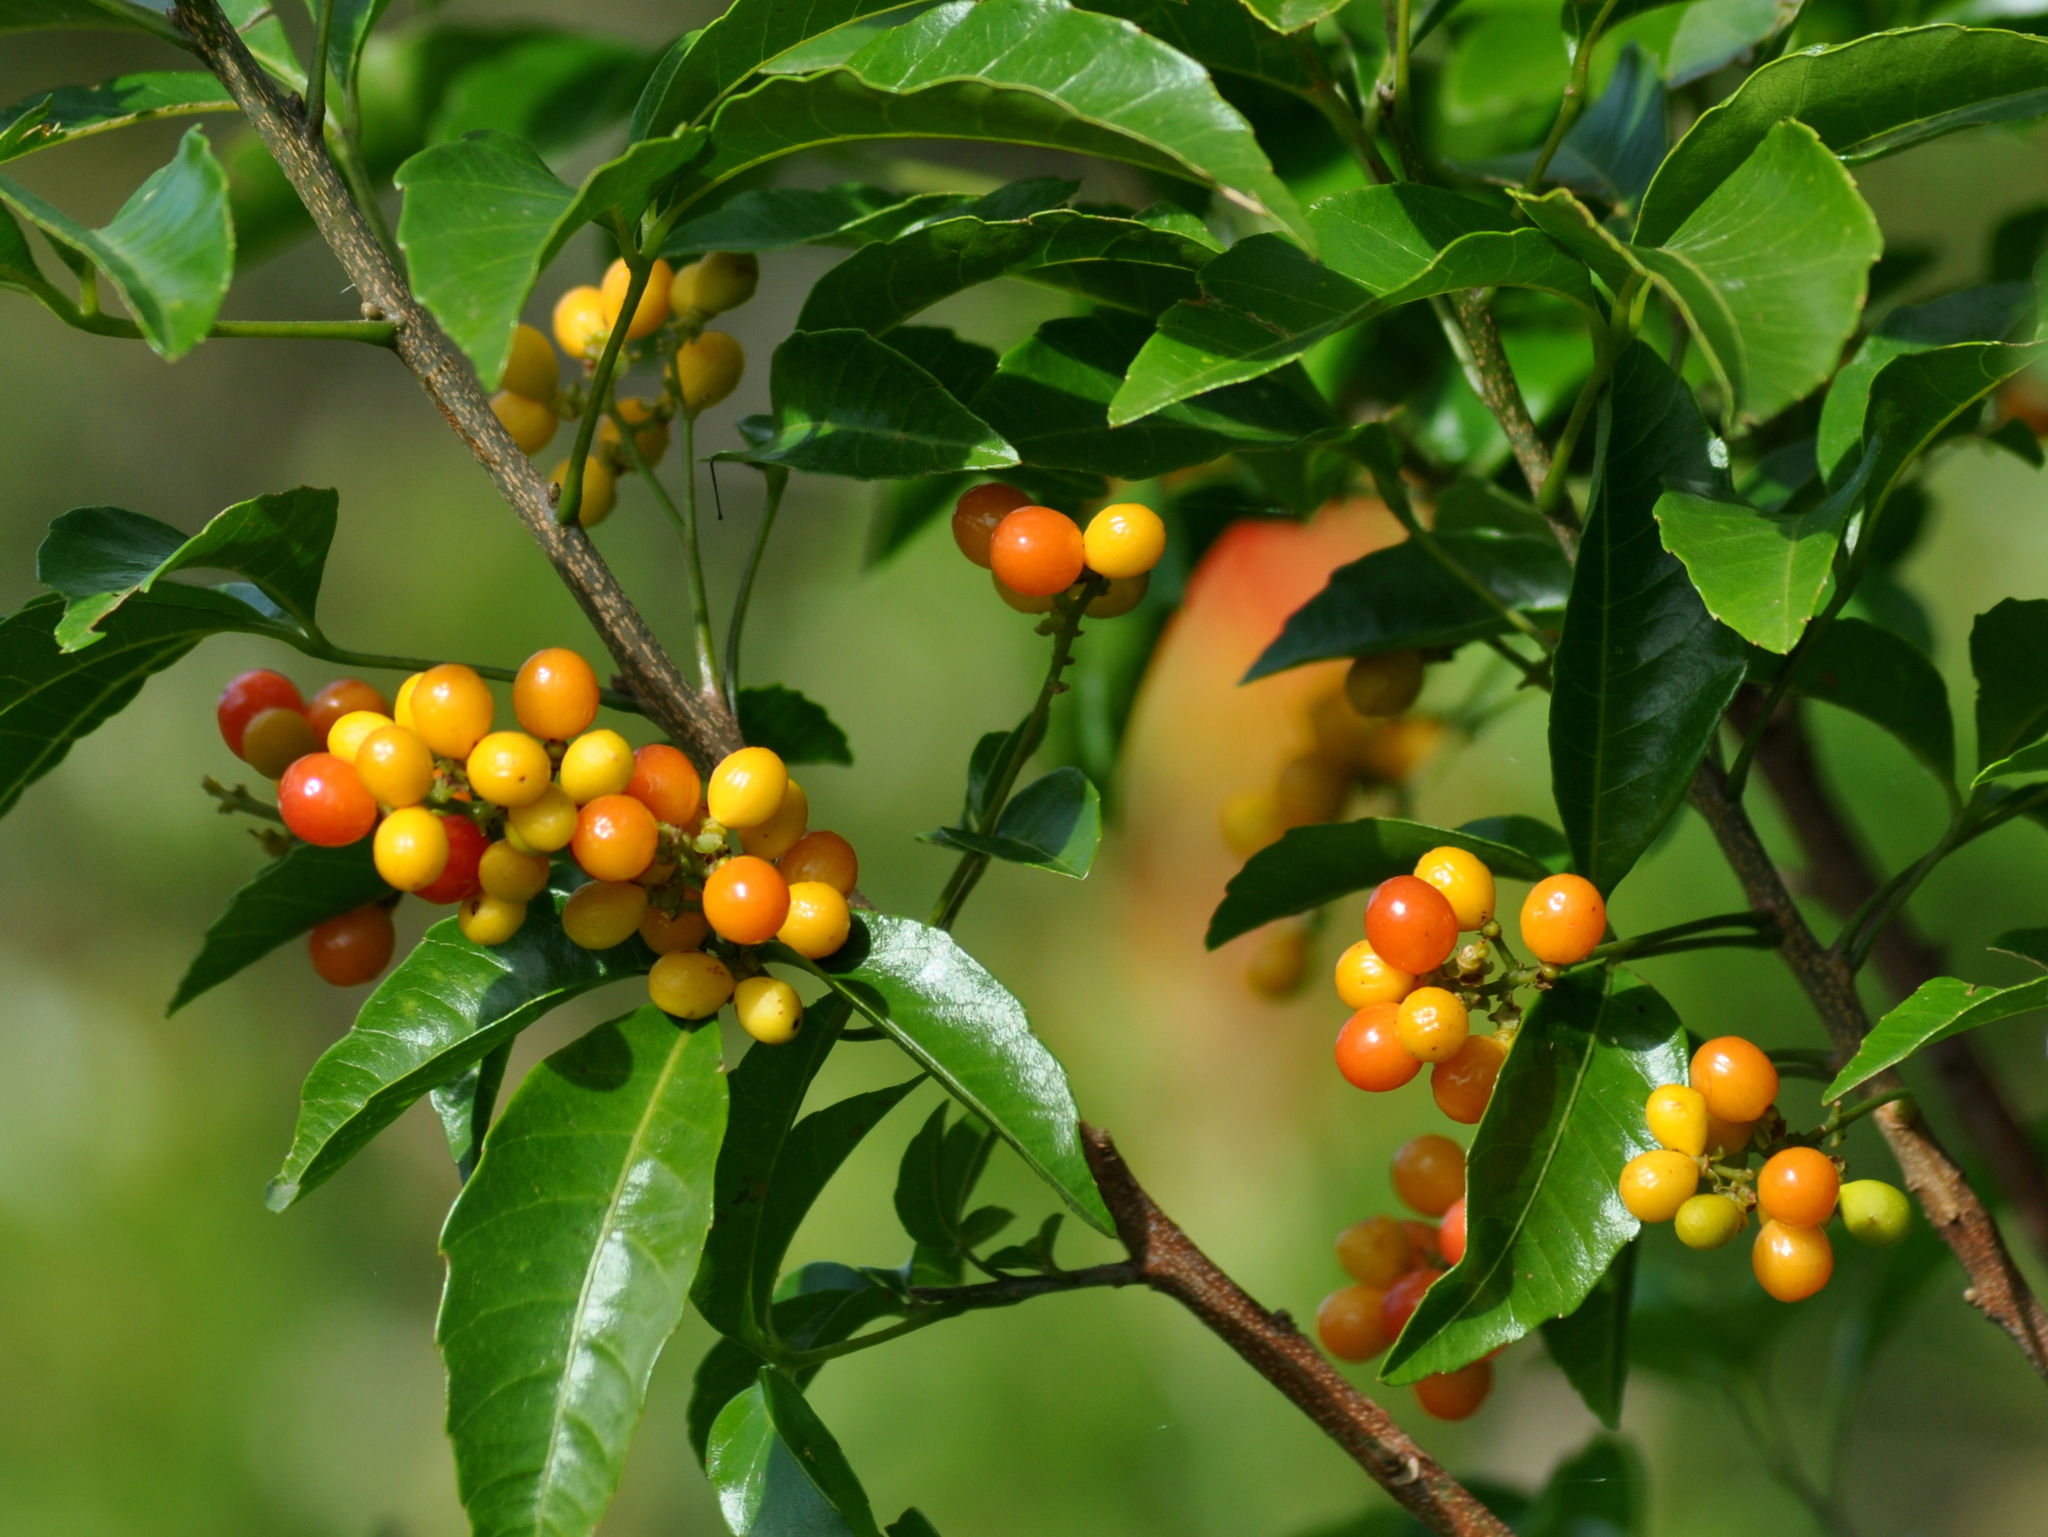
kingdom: Plantae
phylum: Tracheophyta
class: Magnoliopsida
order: Sapindales
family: Sapindaceae
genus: Allophylus
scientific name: Allophylus edulis
